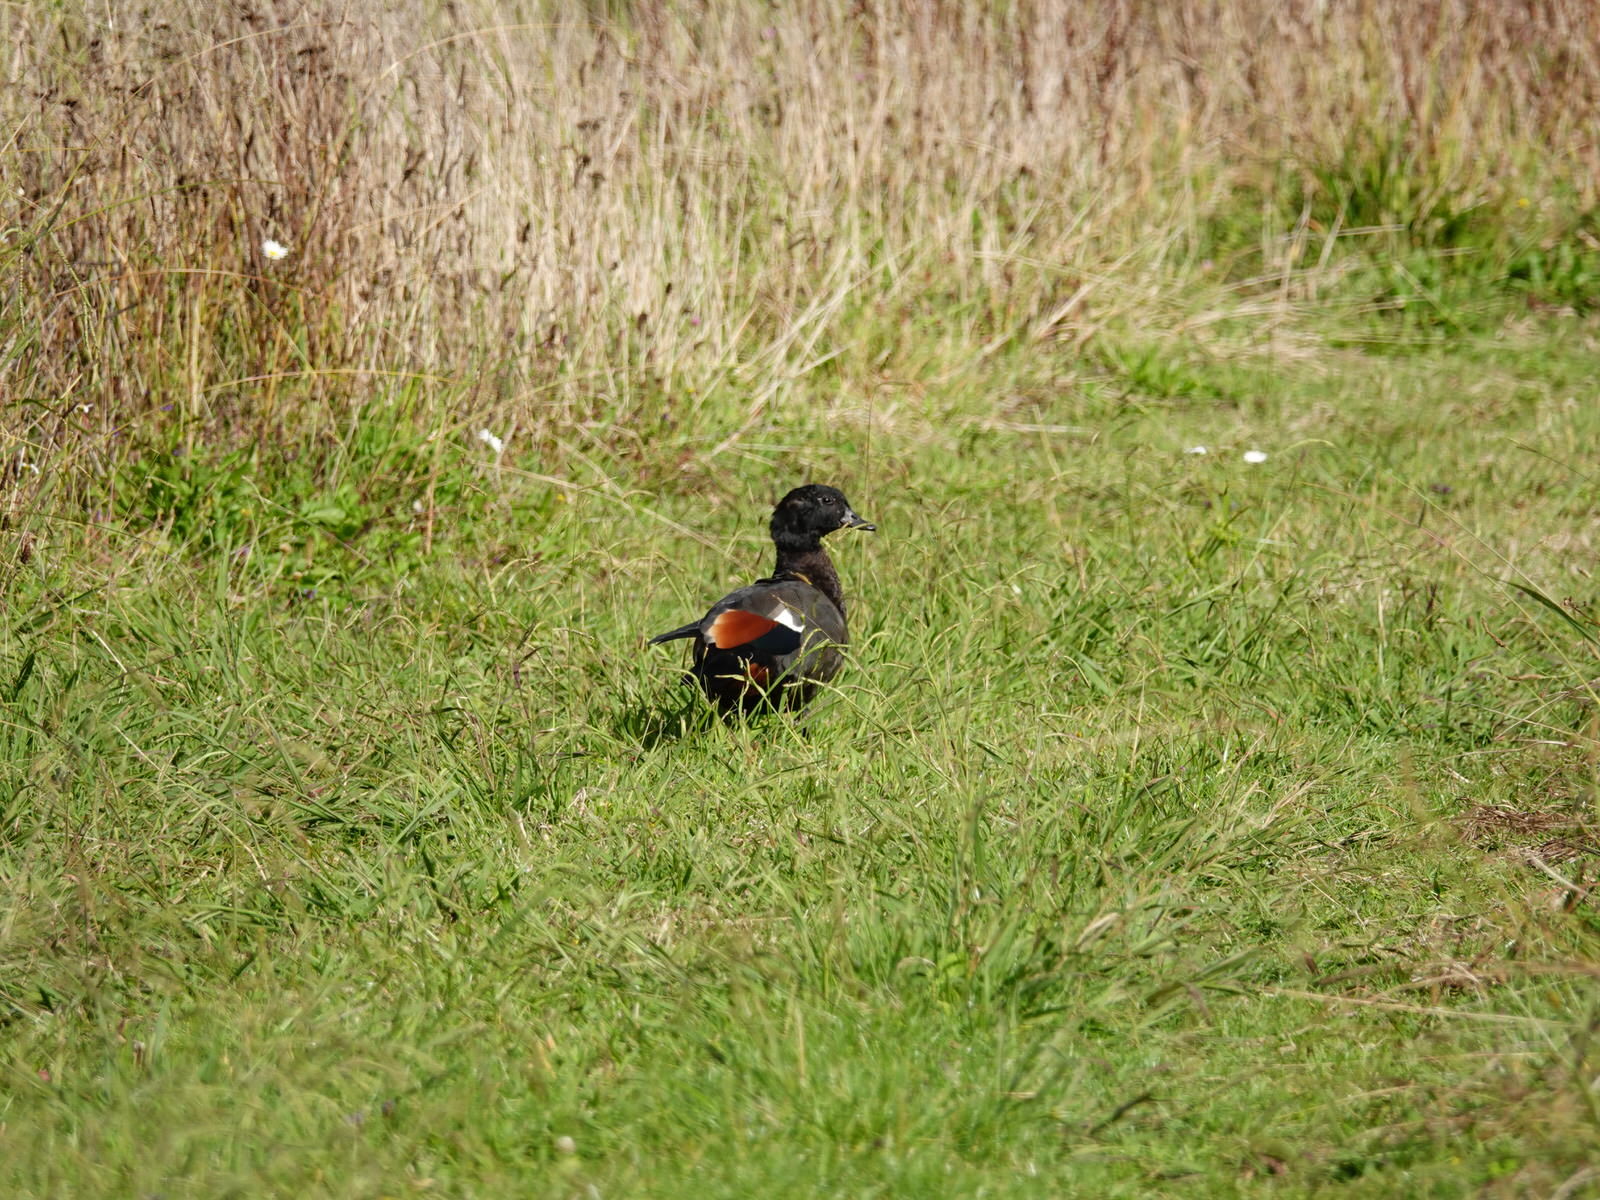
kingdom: Animalia
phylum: Chordata
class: Aves
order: Anseriformes
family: Anatidae
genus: Tadorna
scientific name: Tadorna variegata
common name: Paradise shelduck
